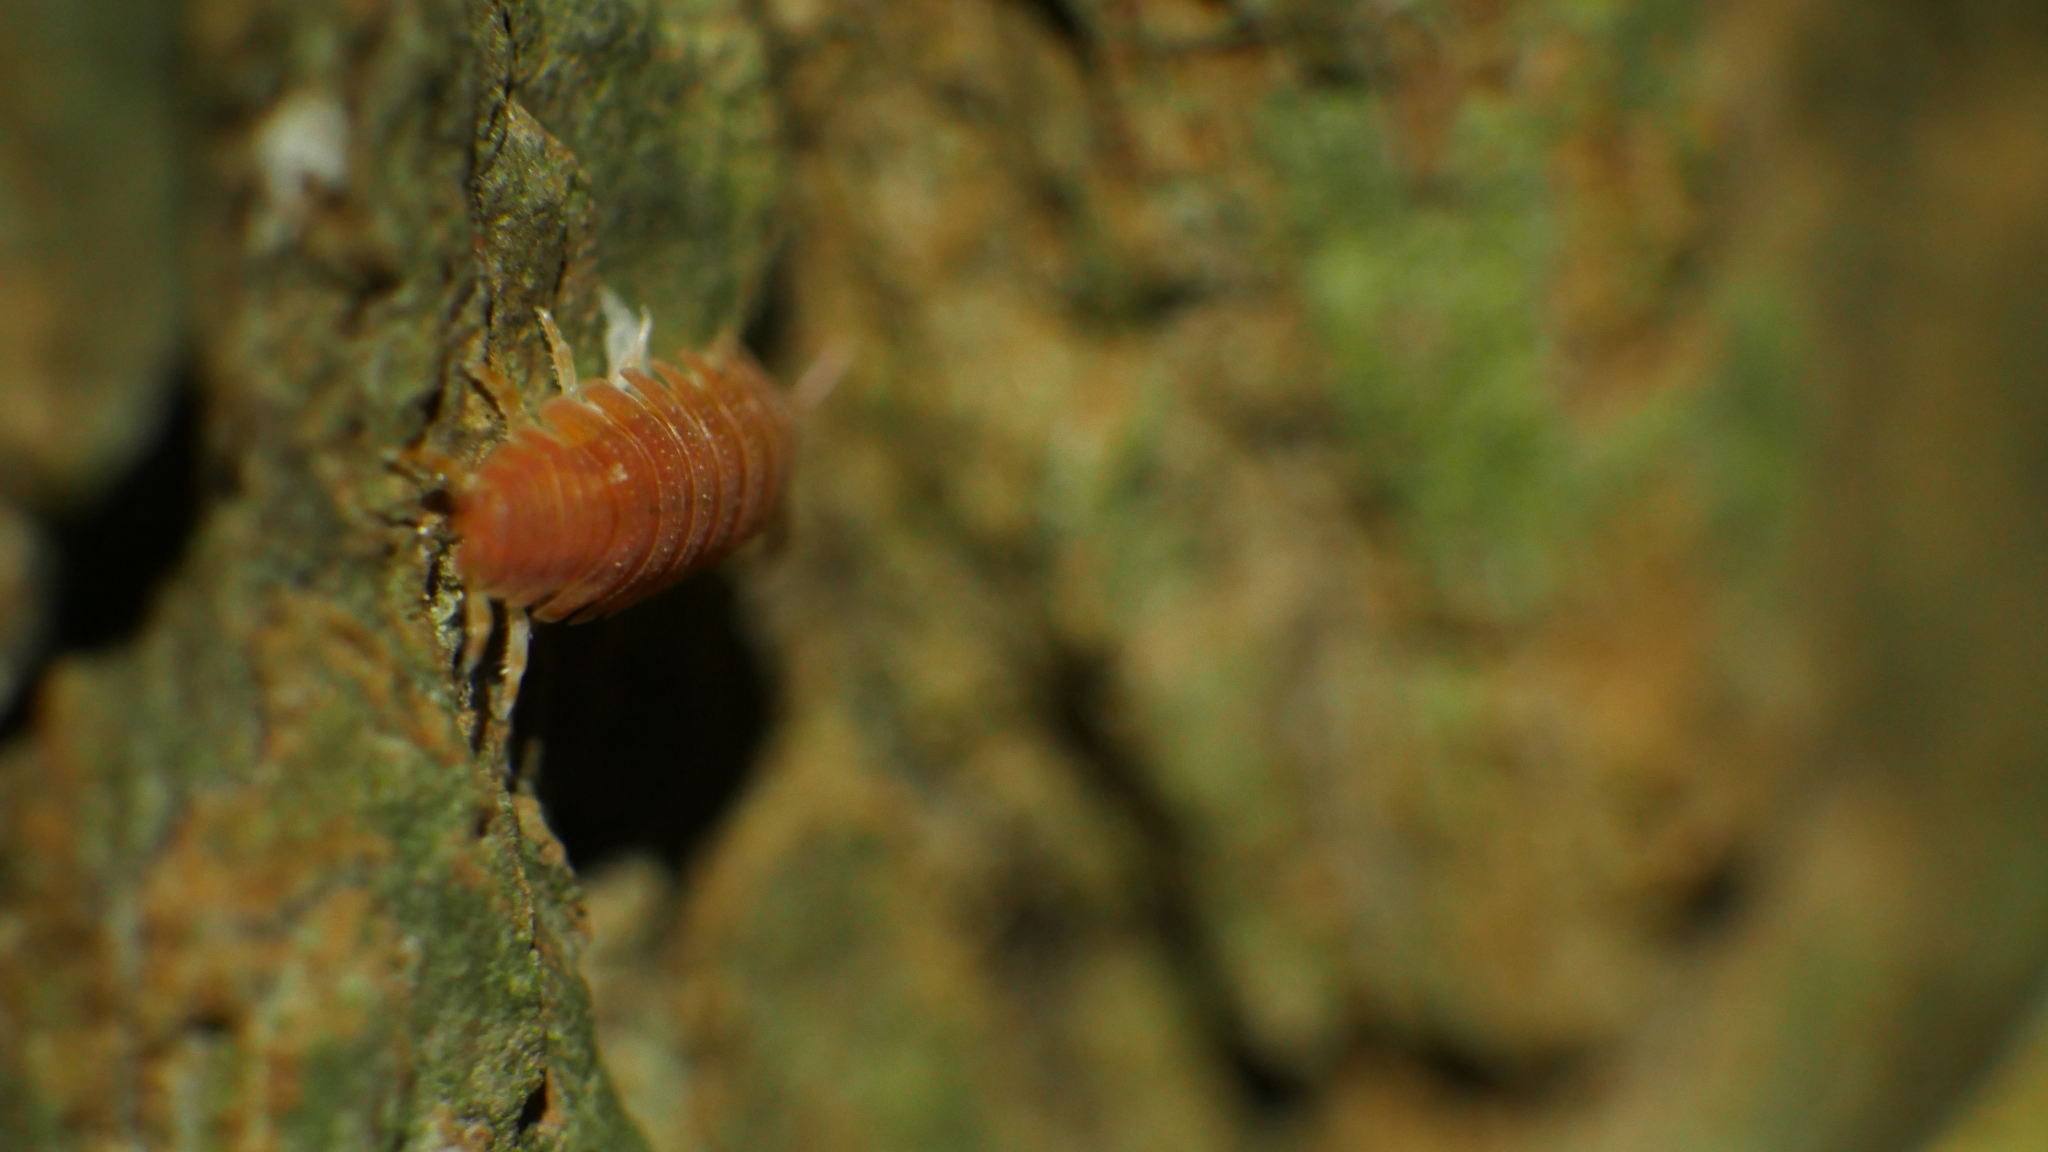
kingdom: Animalia
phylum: Arthropoda
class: Malacostraca
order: Isopoda
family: Porcellionidae
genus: Porcellio
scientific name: Porcellio scaber
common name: Common rough woodlouse
